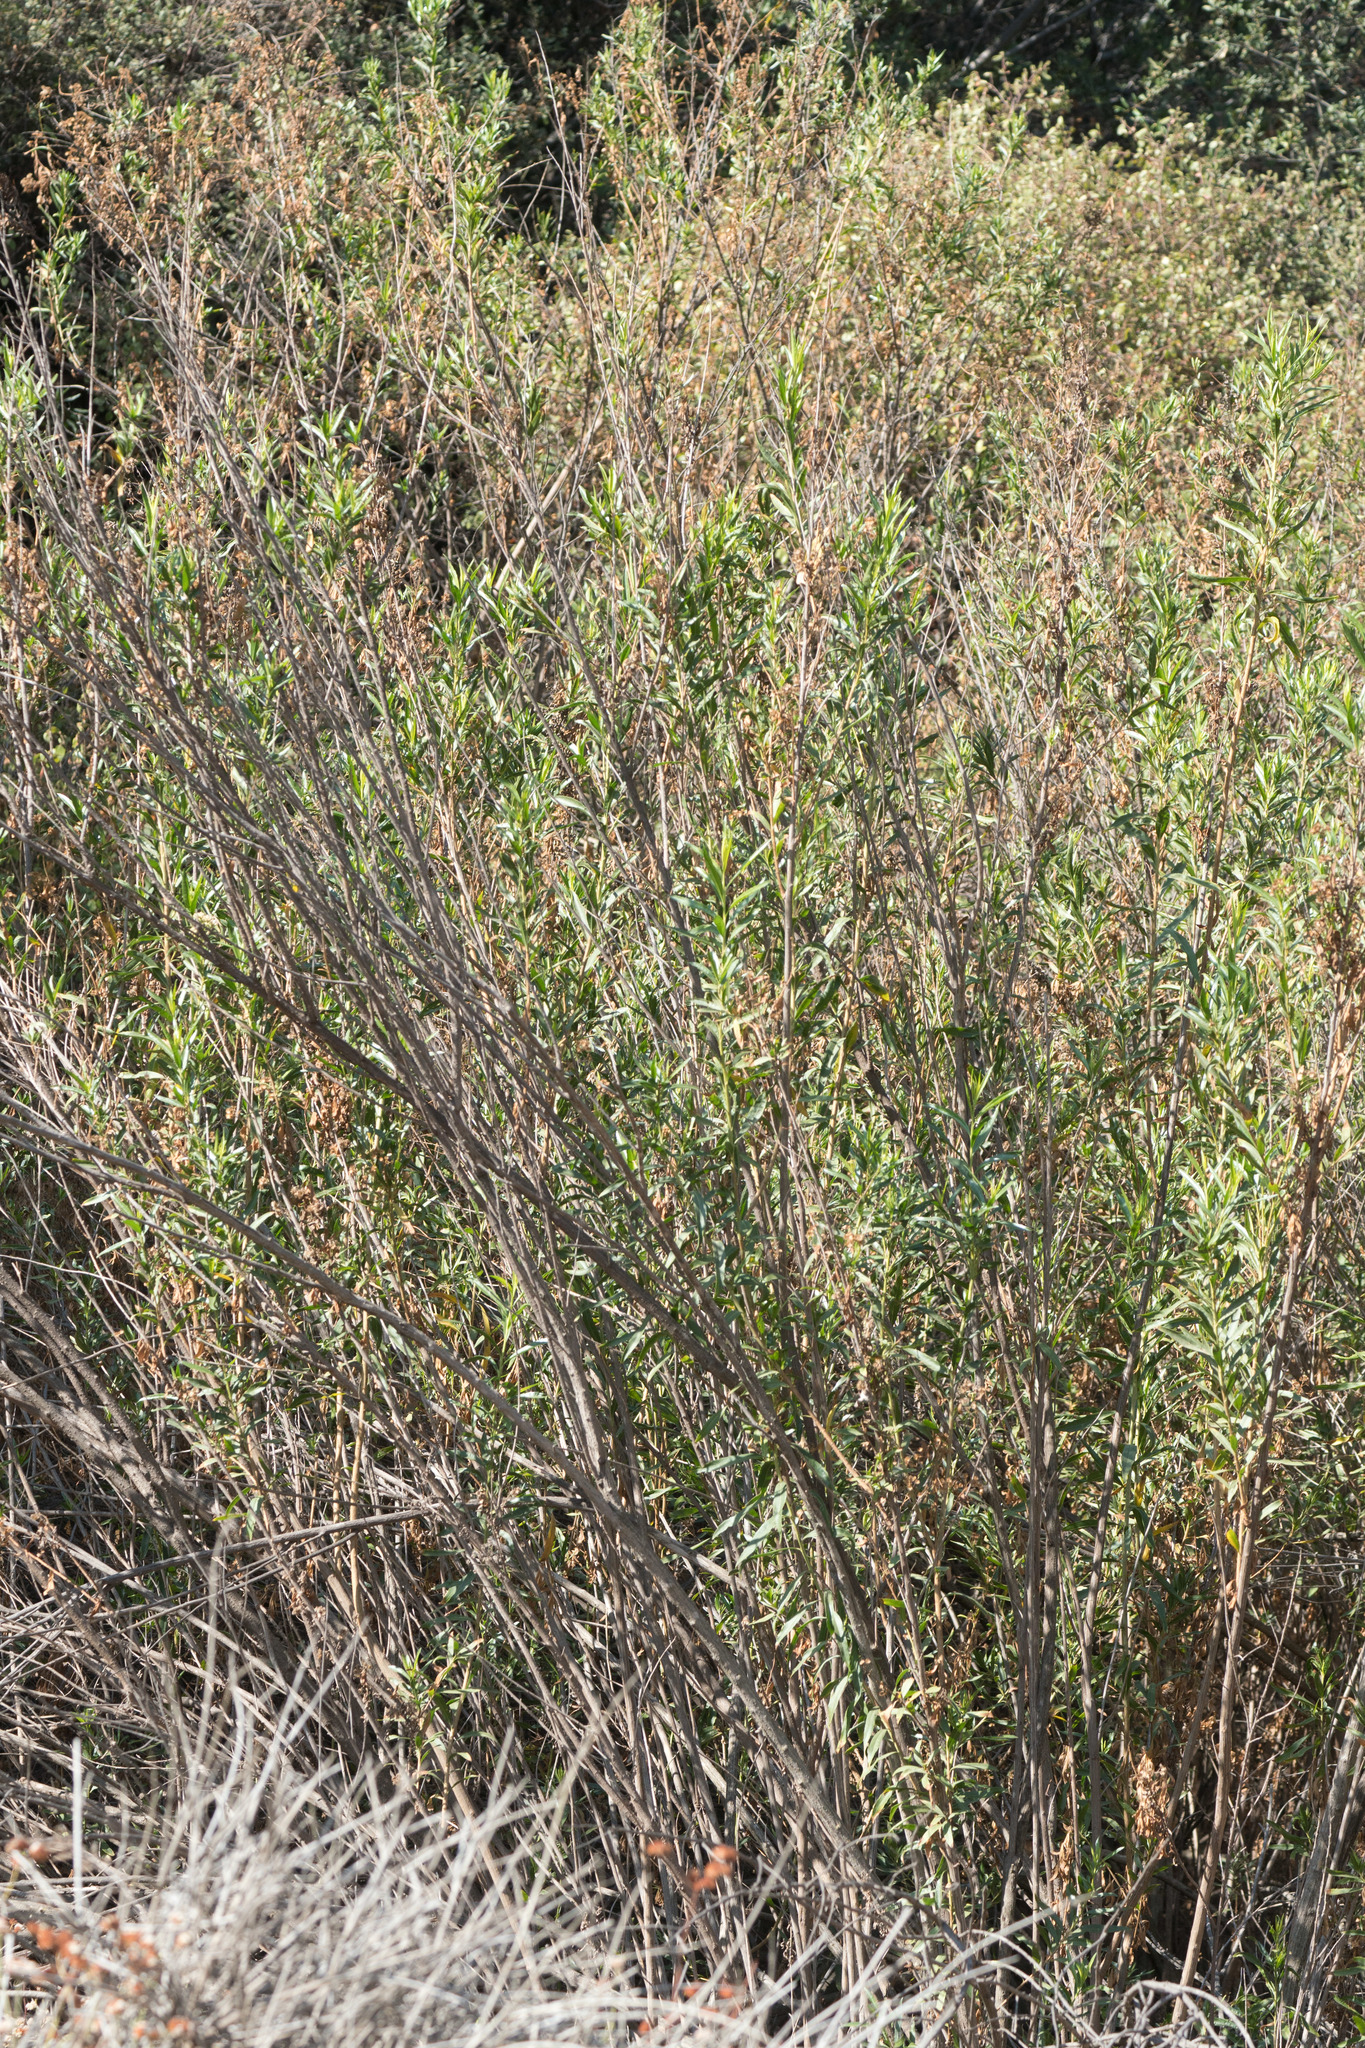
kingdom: Plantae
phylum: Tracheophyta
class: Magnoliopsida
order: Asterales
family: Asteraceae
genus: Baccharis
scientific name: Baccharis salicifolia
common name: Sticky baccharis
